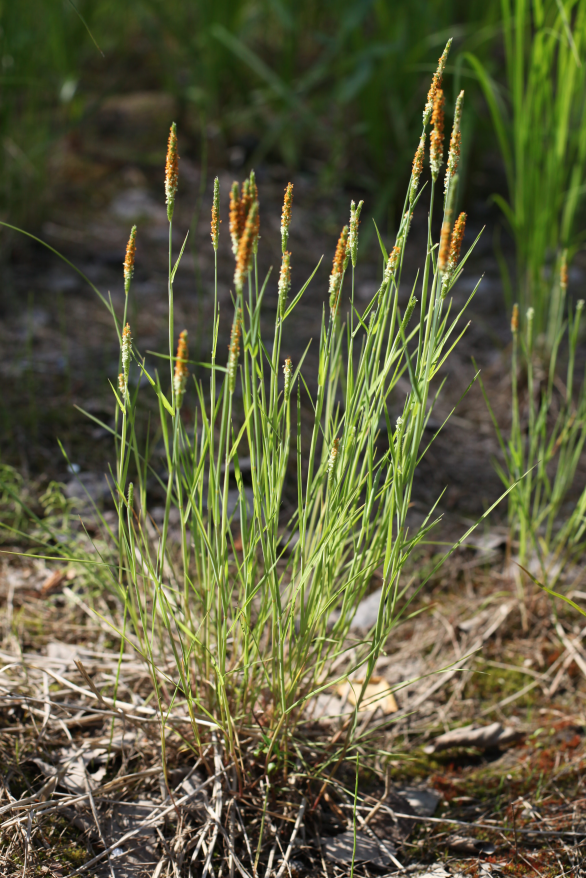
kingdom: Plantae
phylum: Tracheophyta
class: Liliopsida
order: Poales
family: Poaceae
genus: Alopecurus
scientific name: Alopecurus aequalis
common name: Orange foxtail
